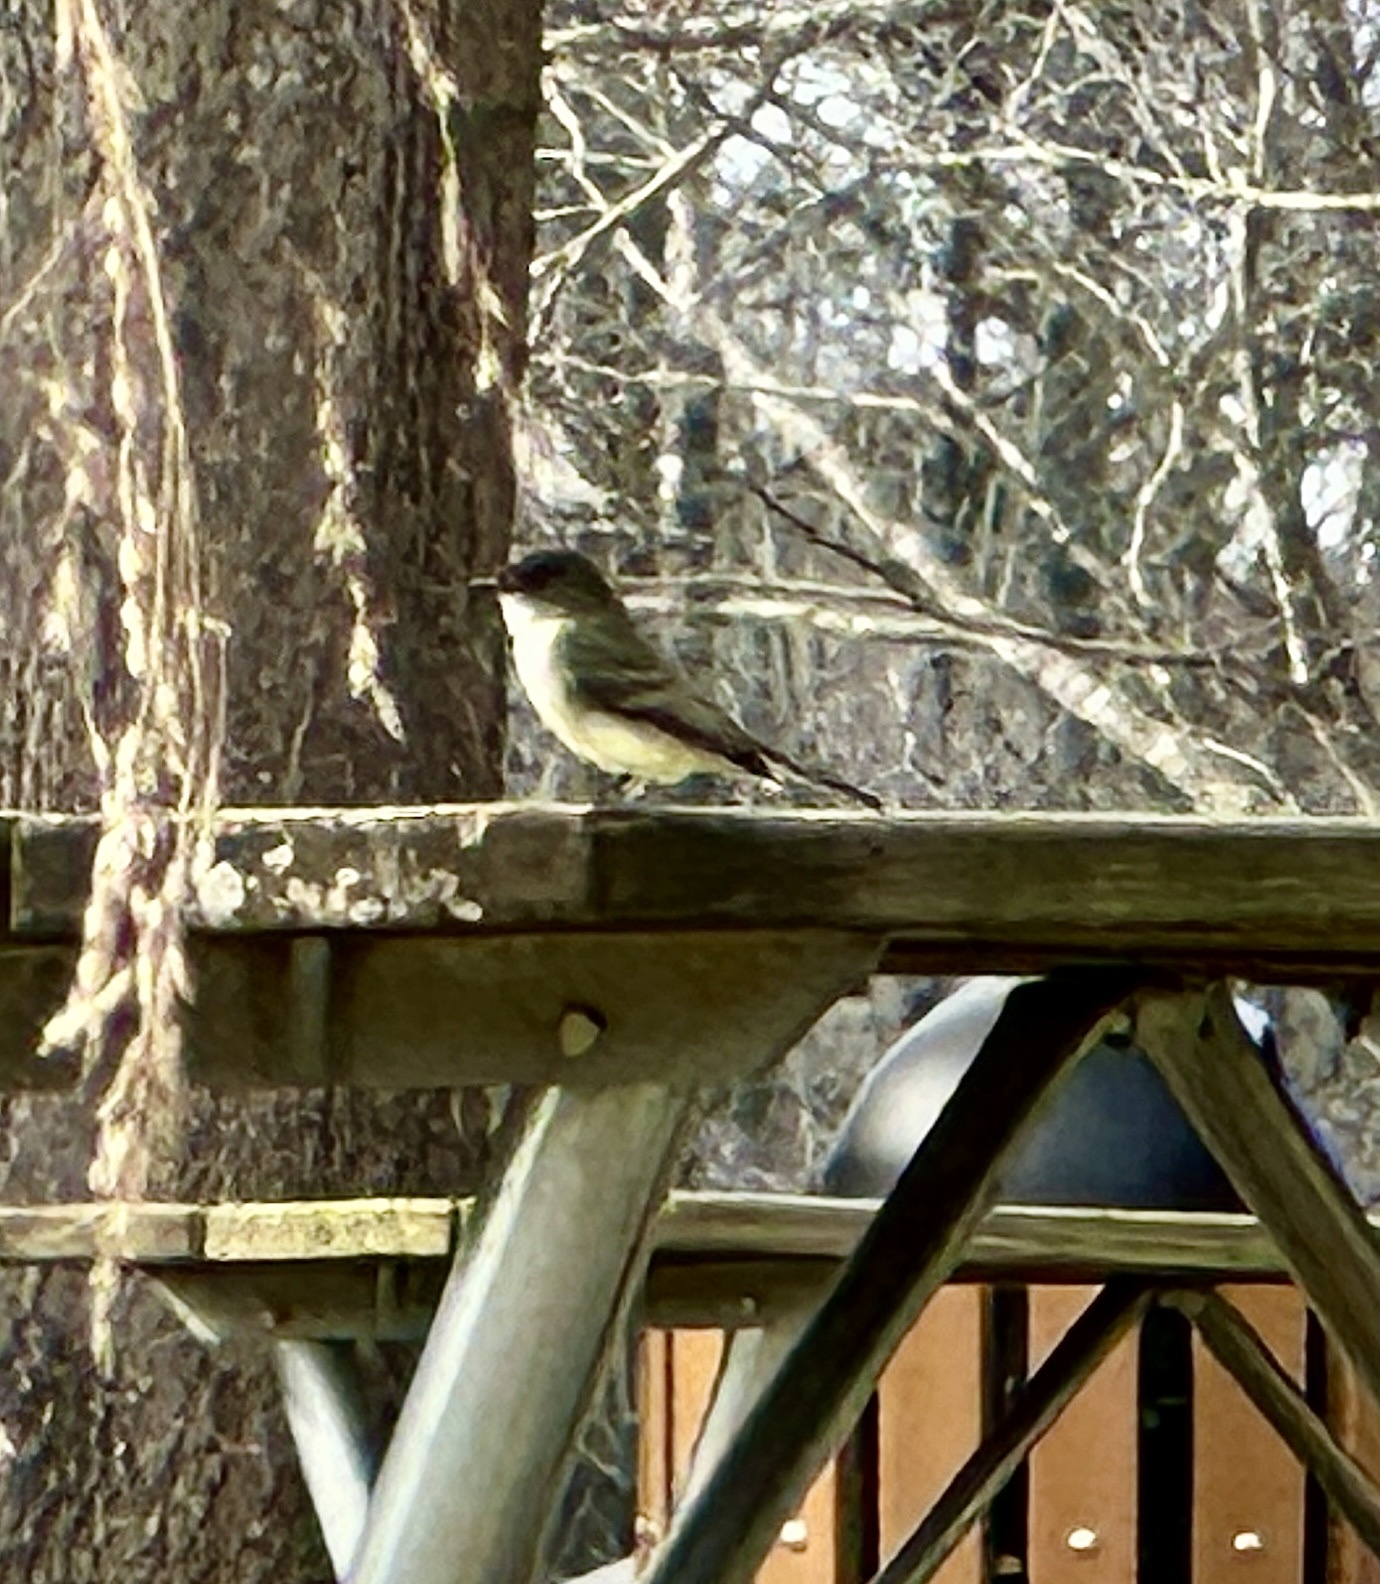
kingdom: Animalia
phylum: Chordata
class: Aves
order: Passeriformes
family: Tyrannidae
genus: Sayornis
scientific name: Sayornis phoebe
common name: Eastern phoebe
